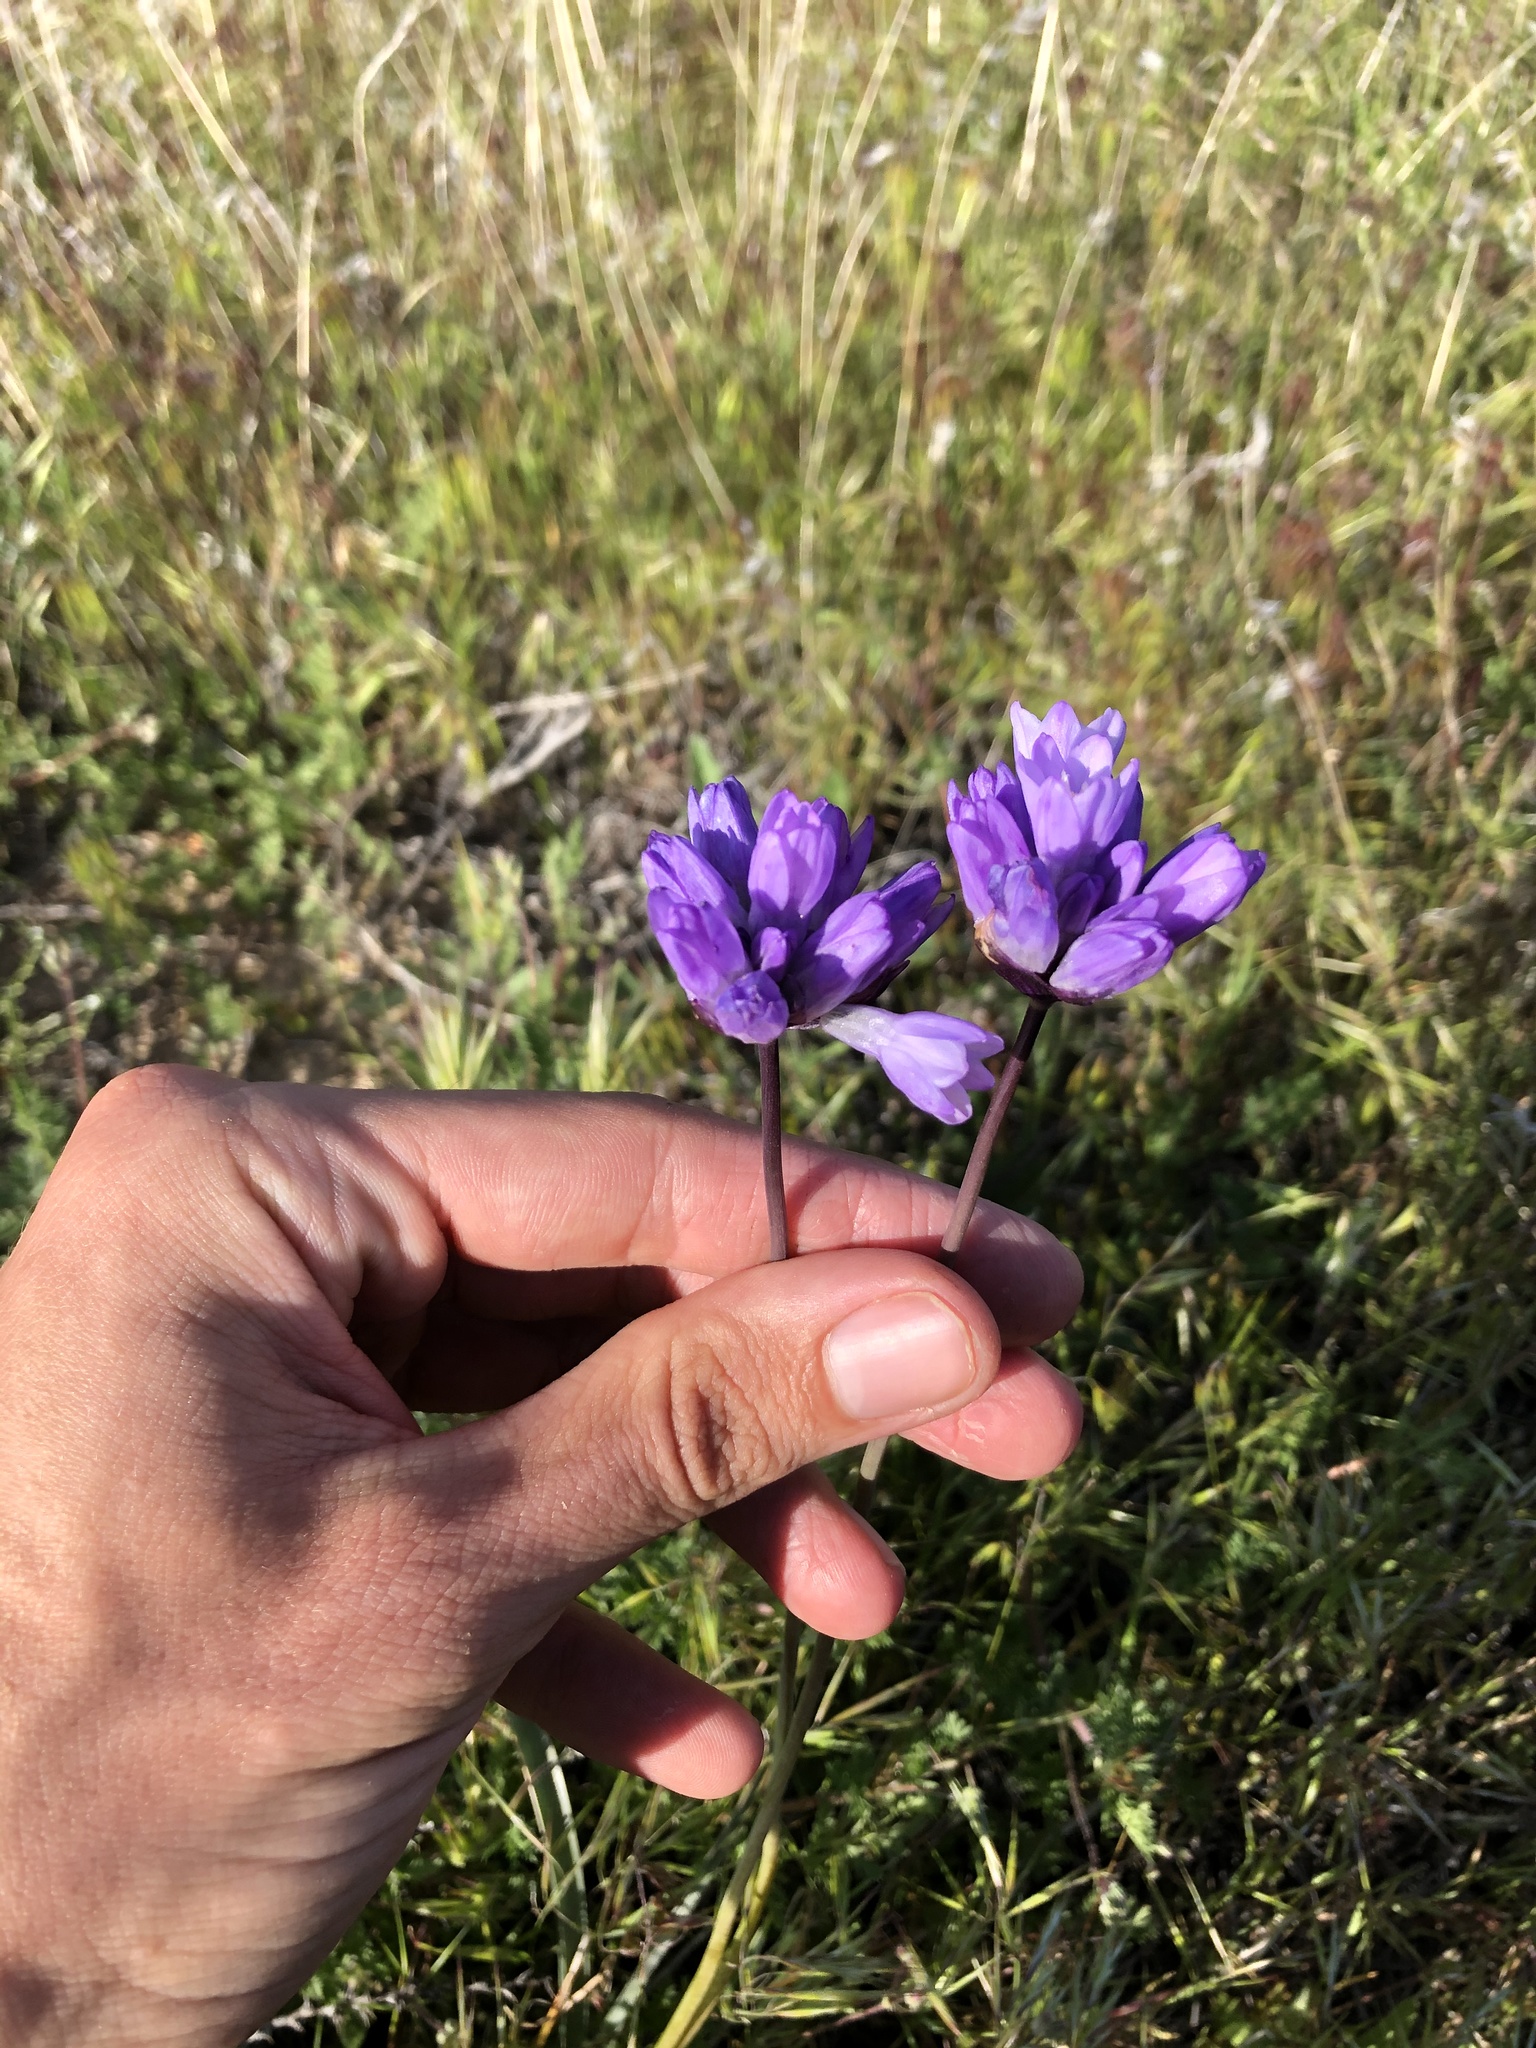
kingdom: Plantae
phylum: Tracheophyta
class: Liliopsida
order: Asparagales
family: Asparagaceae
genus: Dipterostemon
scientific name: Dipterostemon capitatus
